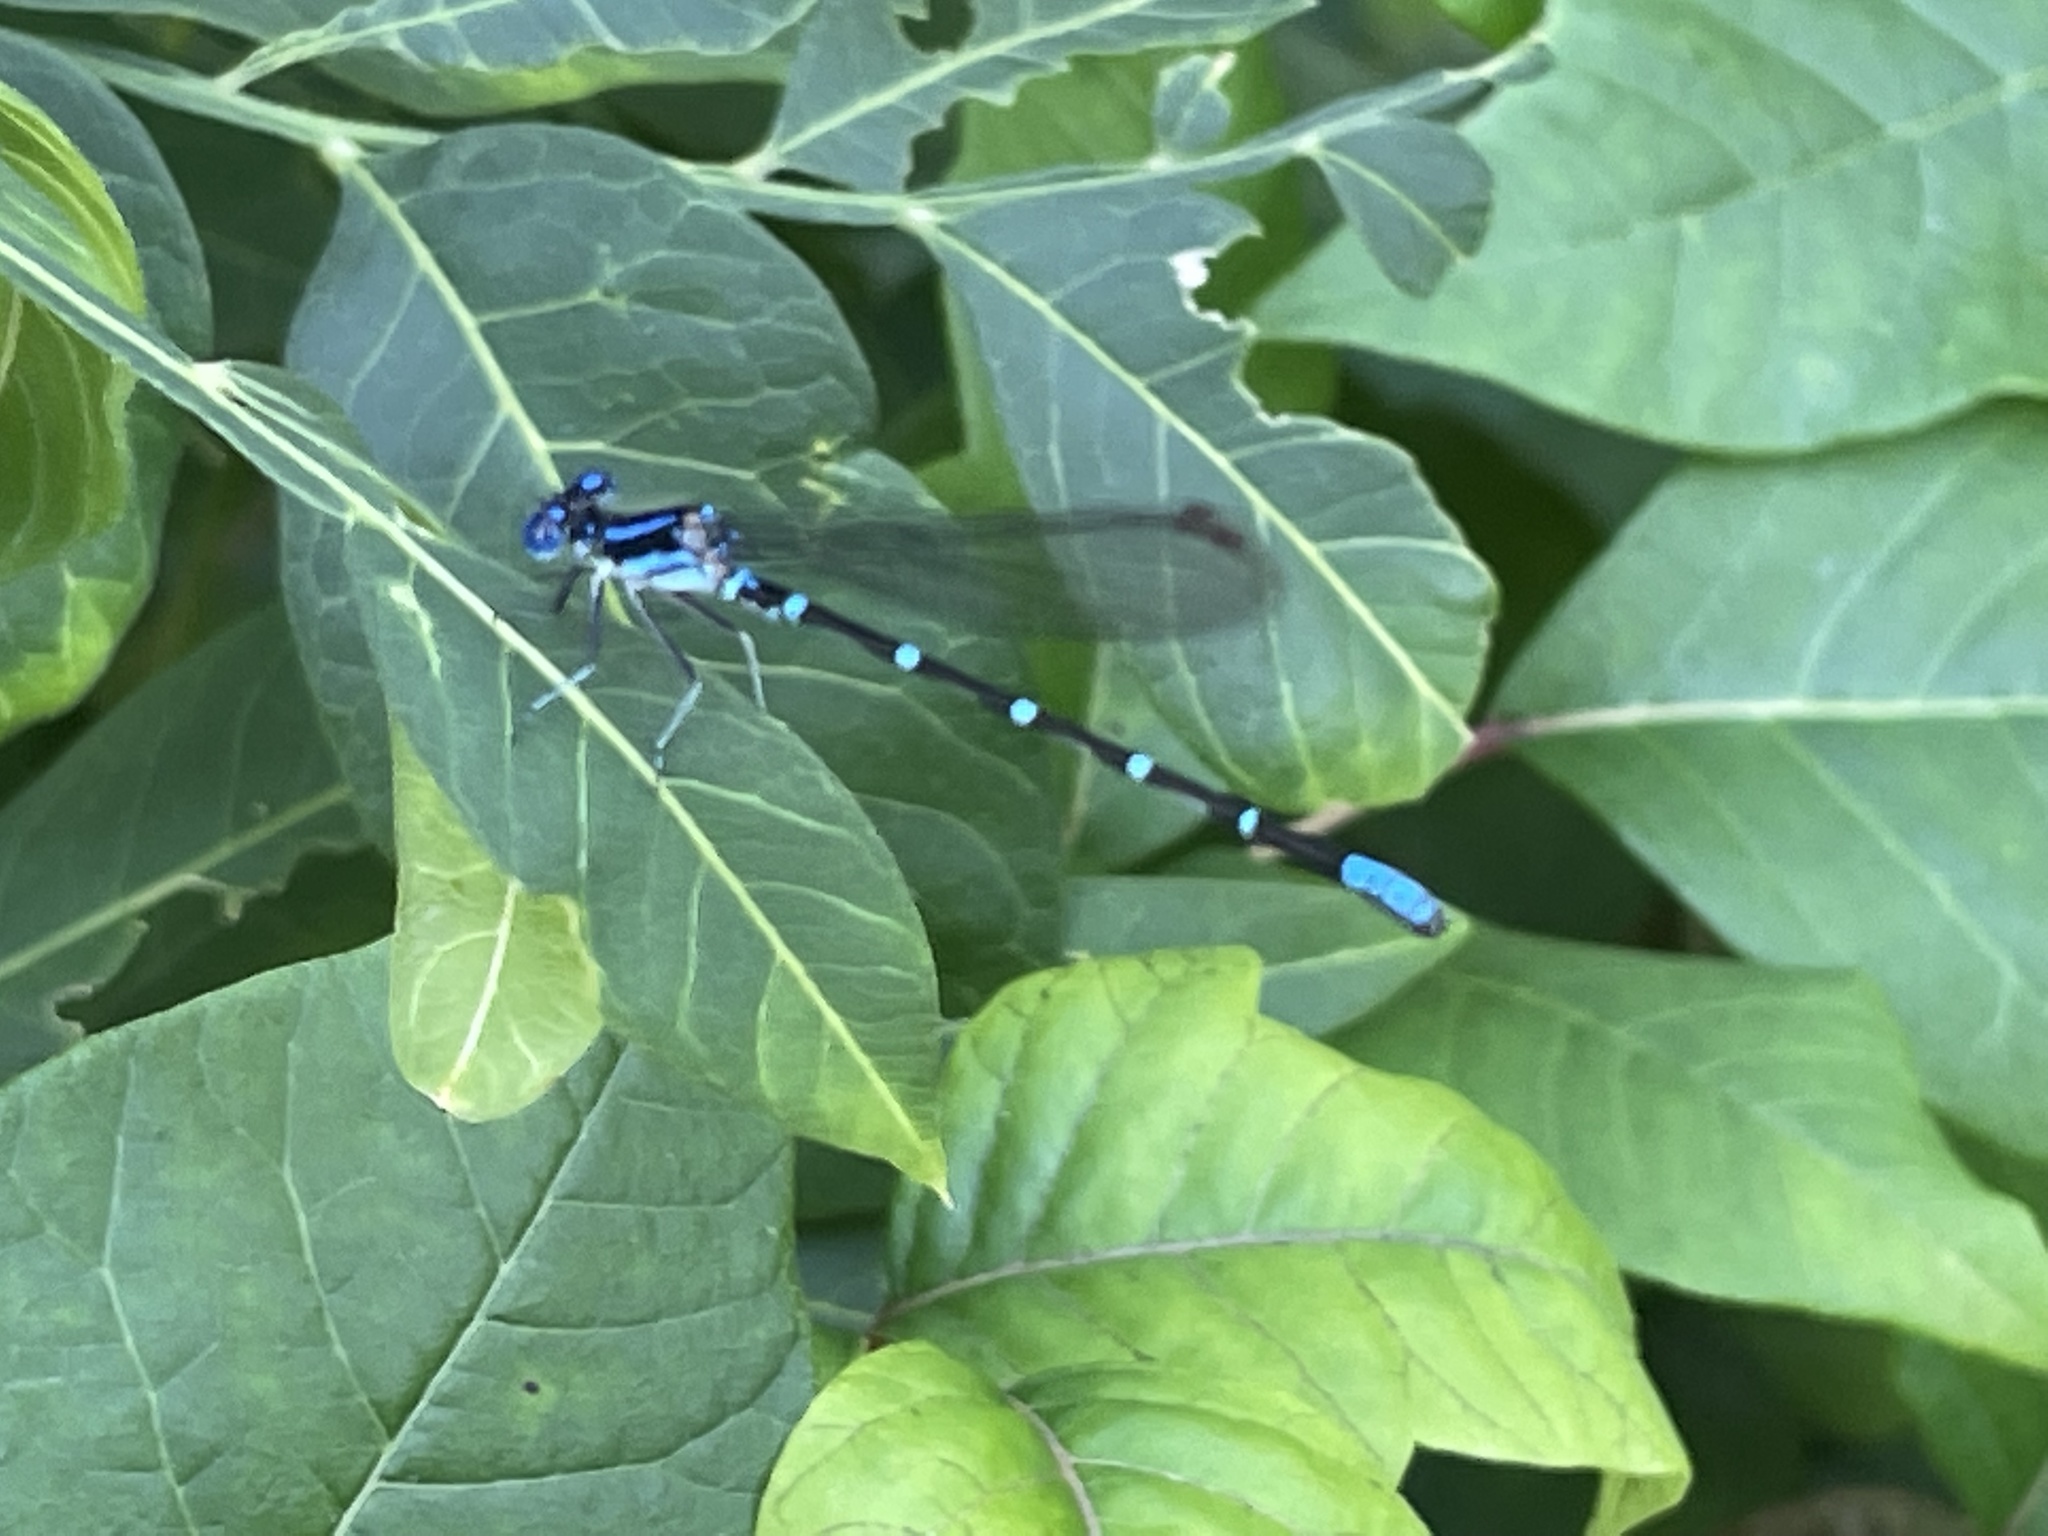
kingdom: Animalia
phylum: Arthropoda
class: Insecta
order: Odonata
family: Coenagrionidae
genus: Argia
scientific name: Argia sedula
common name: Blue-ringed dancer
